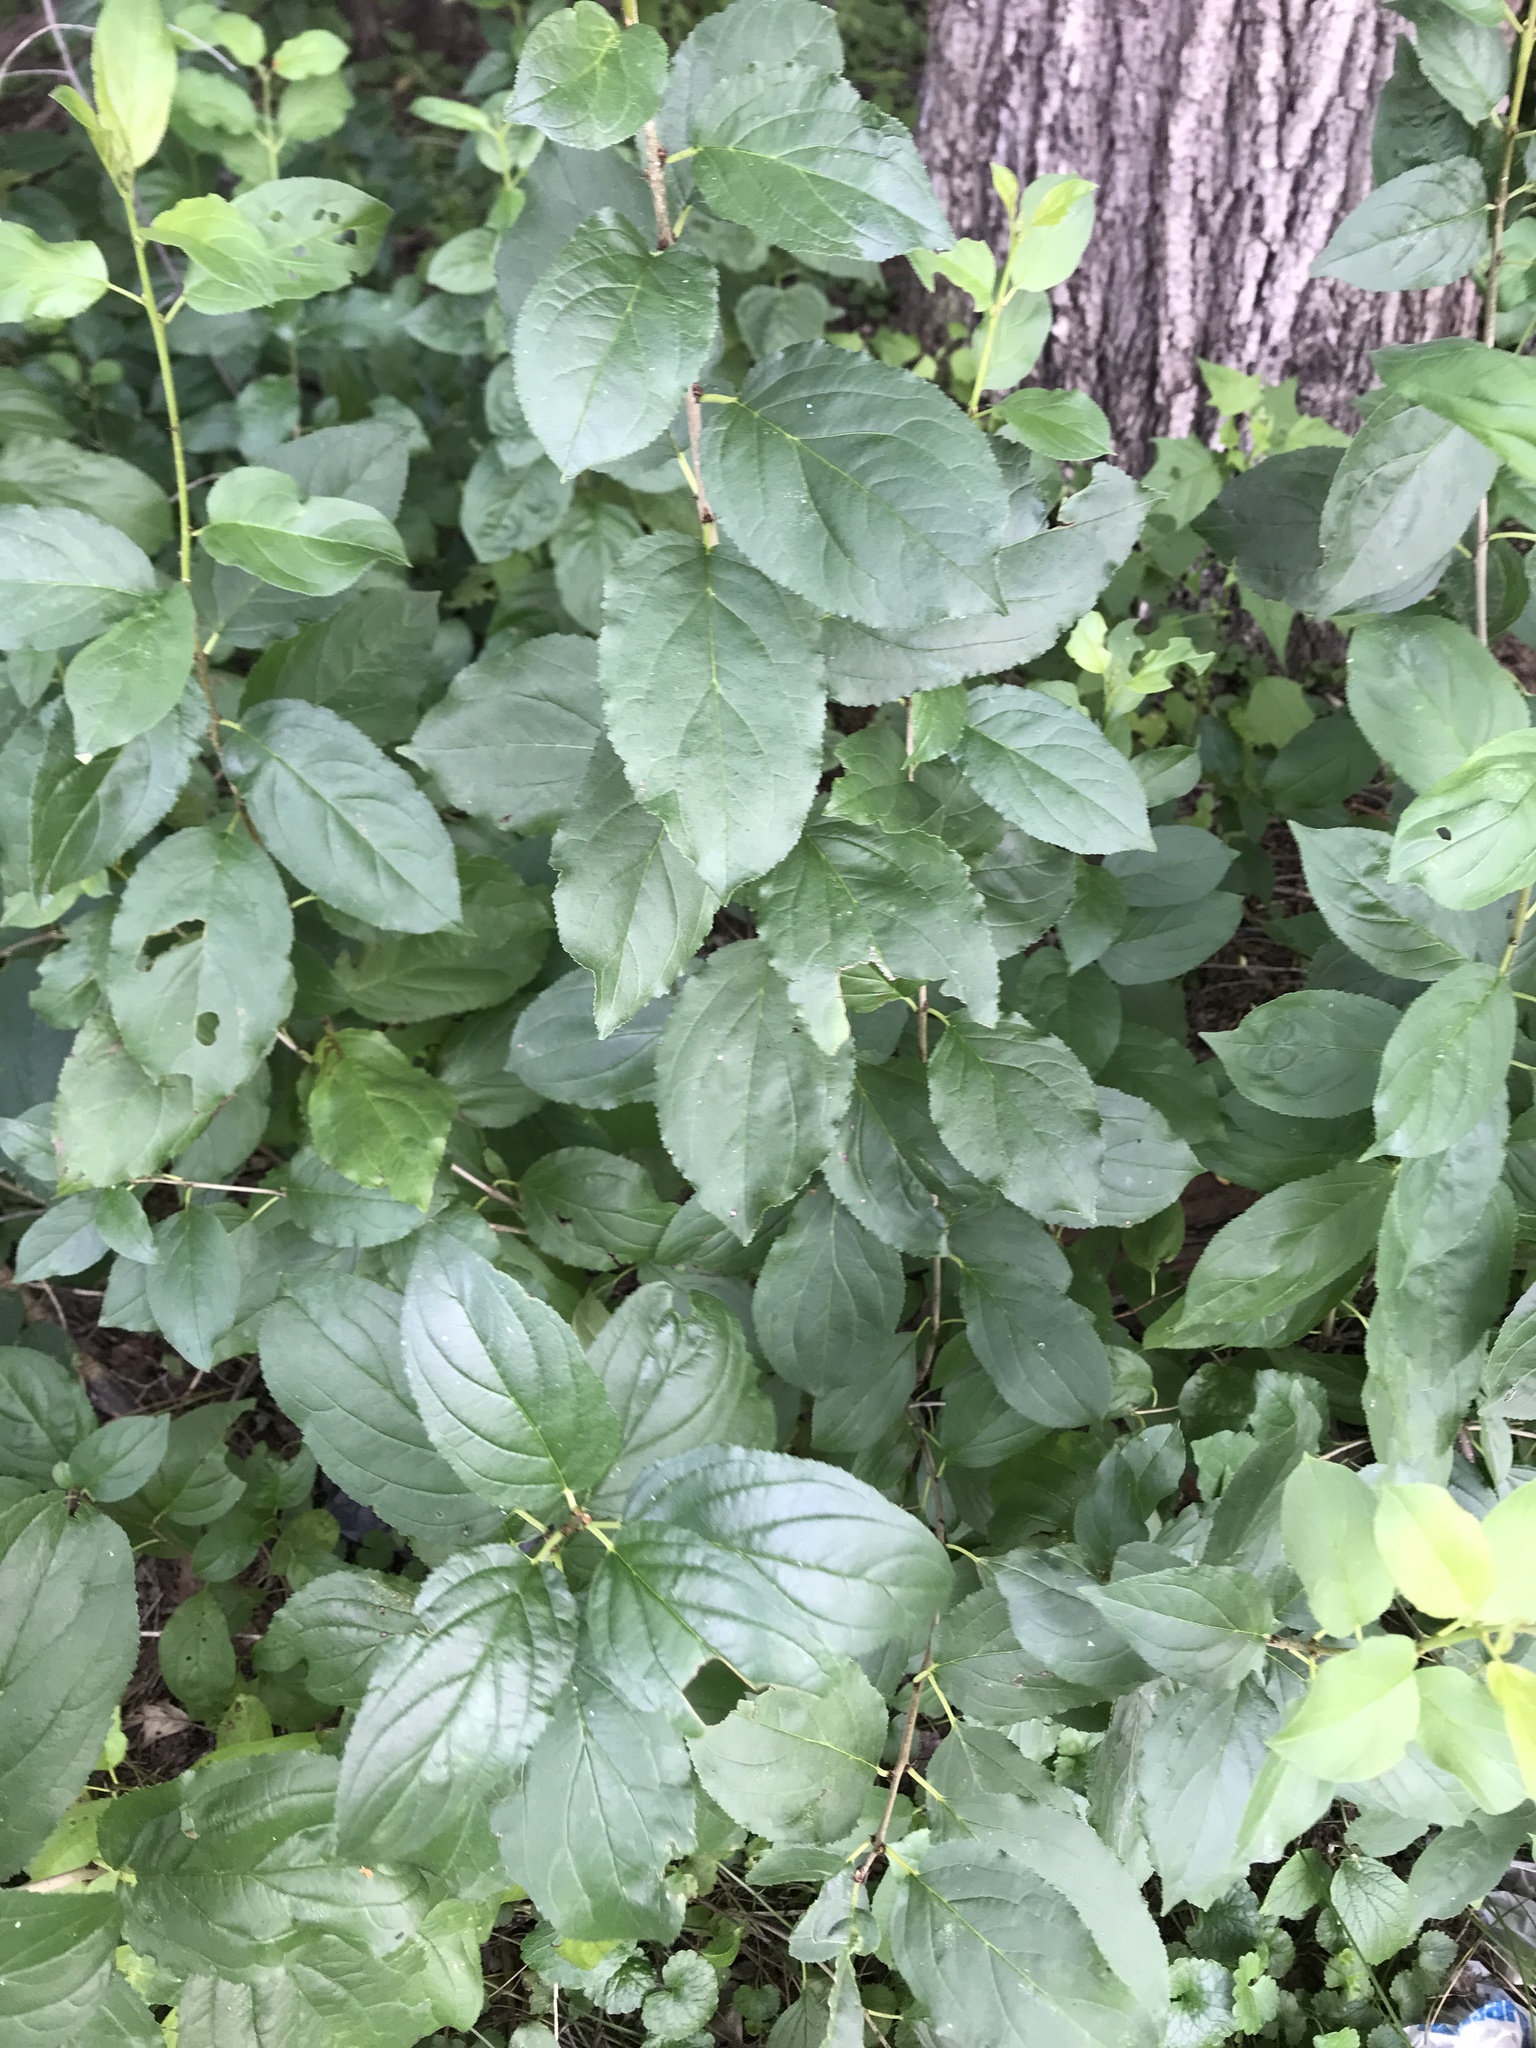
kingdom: Plantae
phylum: Tracheophyta
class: Magnoliopsida
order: Rosales
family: Rhamnaceae
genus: Rhamnus
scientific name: Rhamnus cathartica
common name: Common buckthorn
